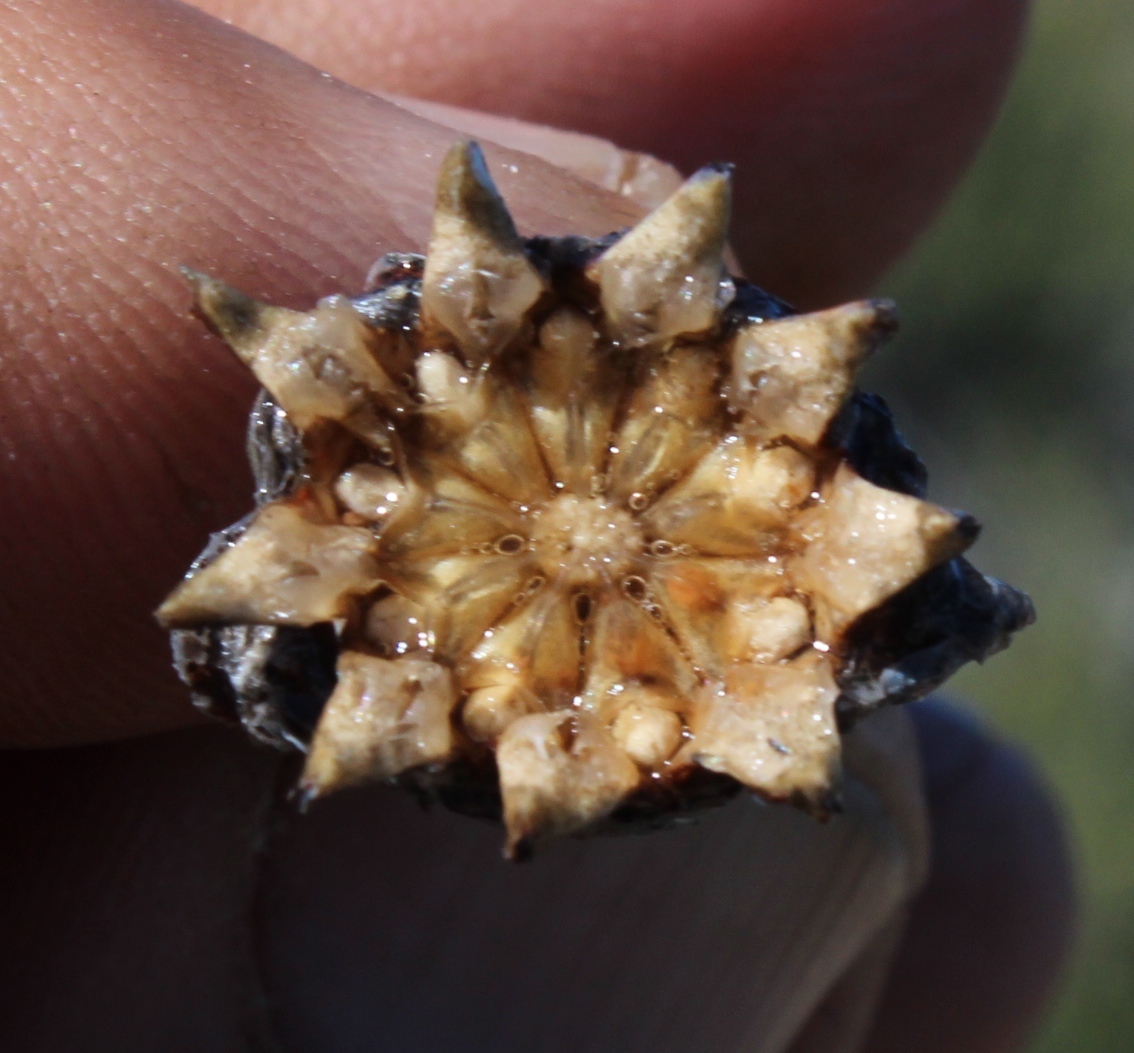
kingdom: Plantae
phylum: Tracheophyta
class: Magnoliopsida
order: Caryophyllales
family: Aizoaceae
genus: Cheiridopsis
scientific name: Cheiridopsis namaquensis
